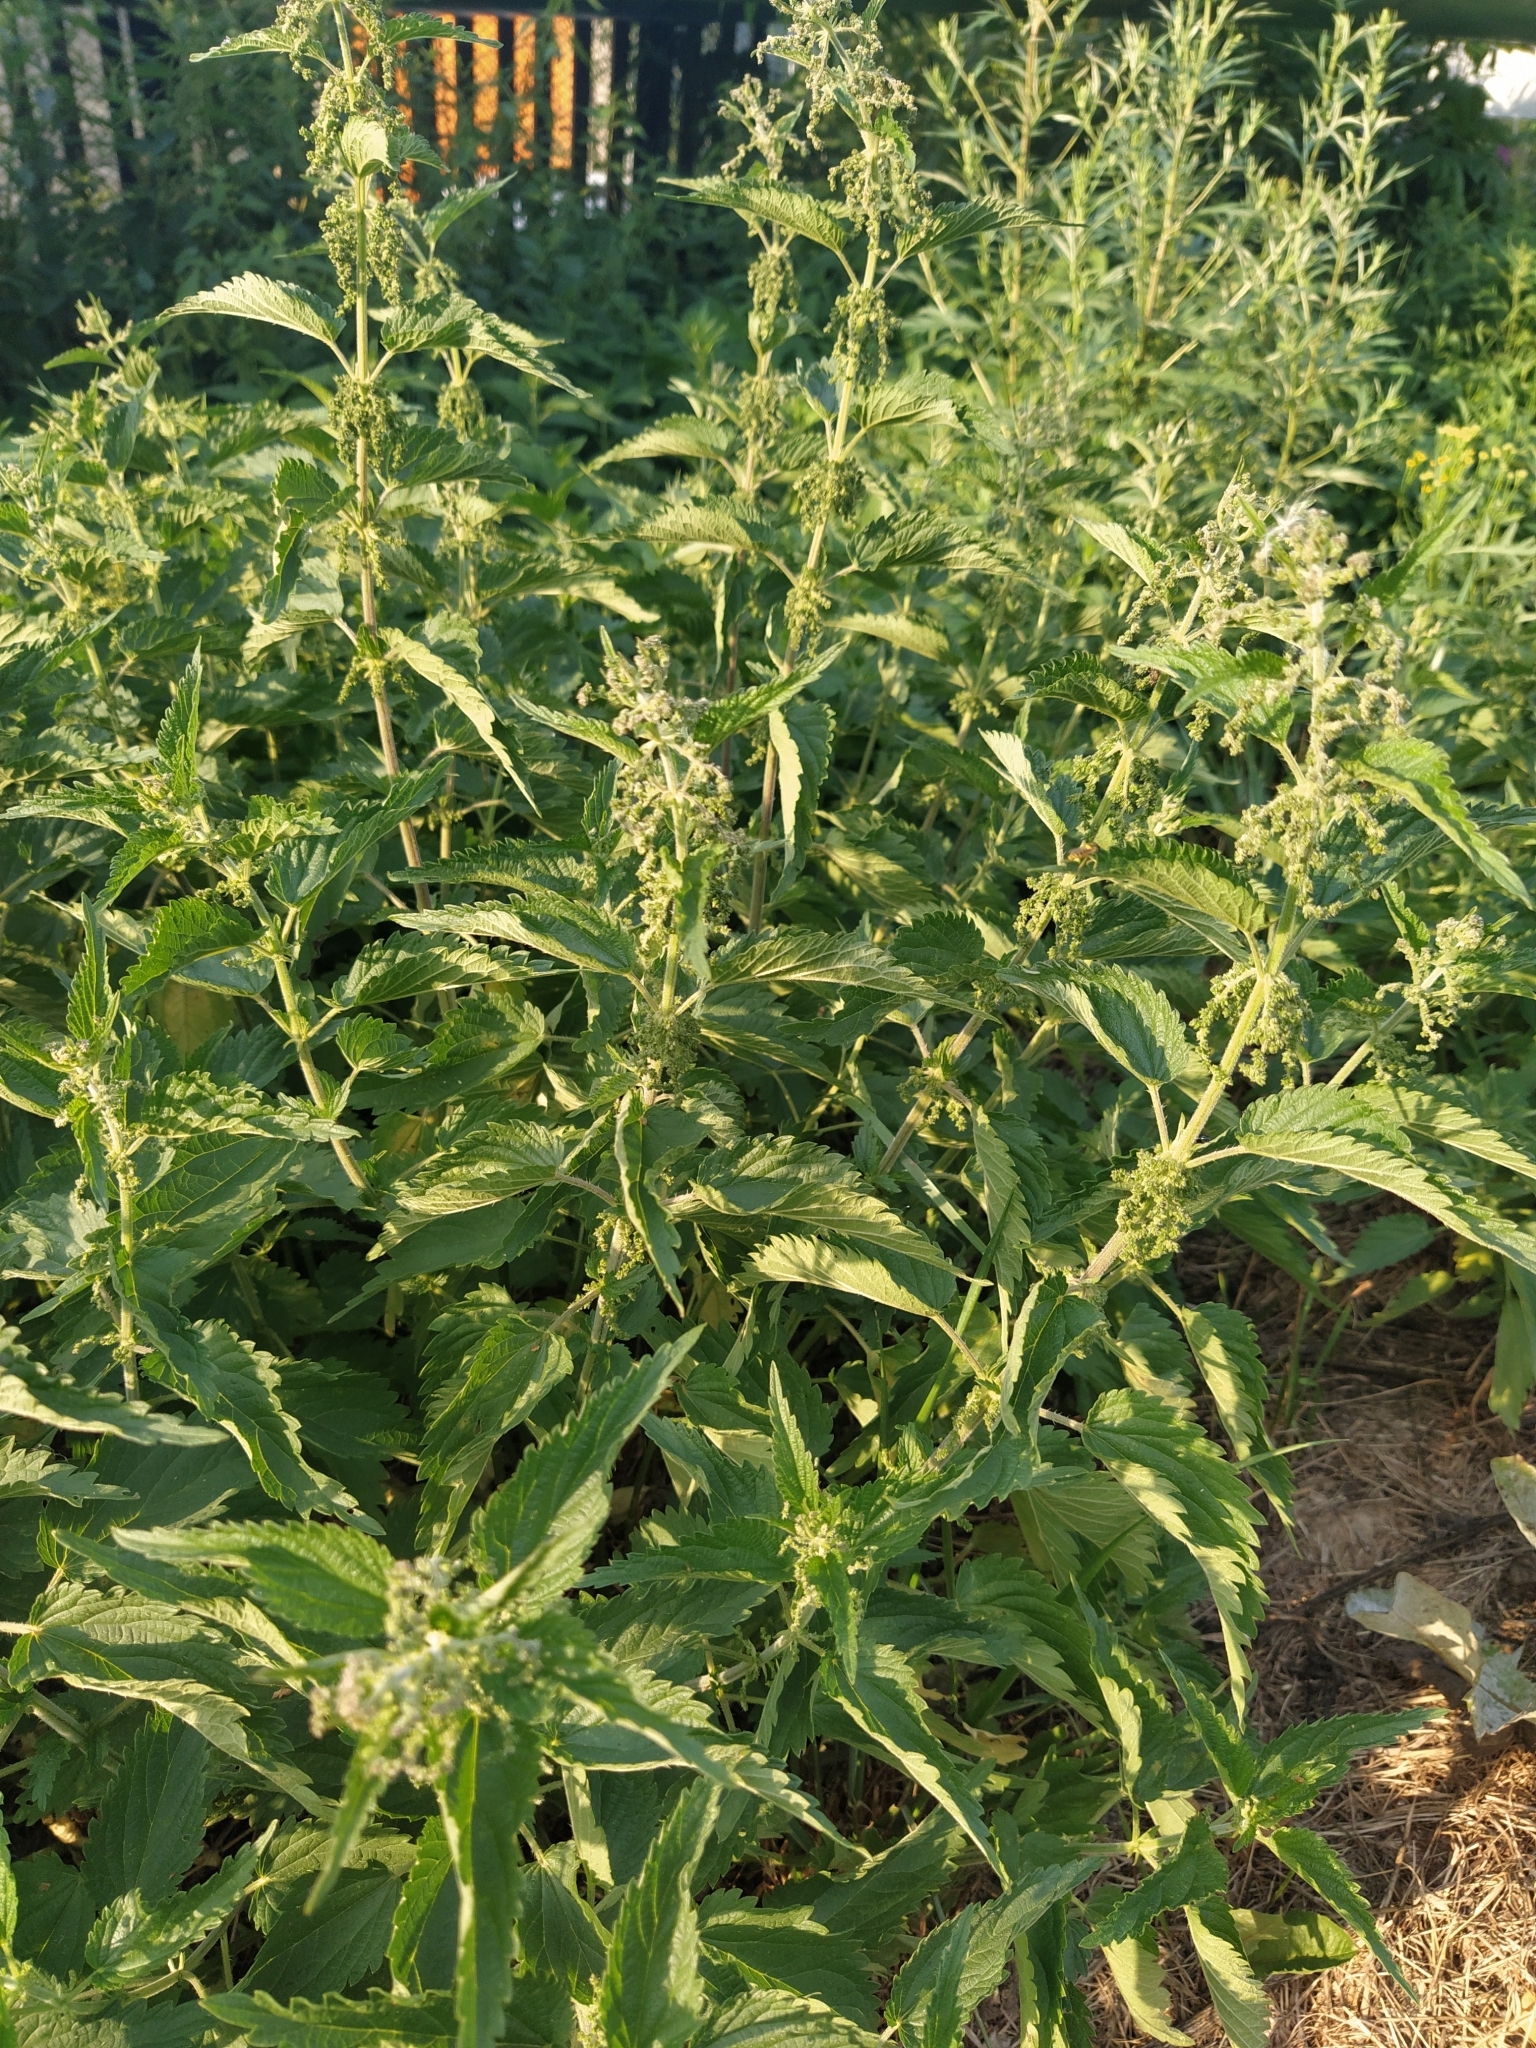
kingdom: Plantae
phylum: Tracheophyta
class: Magnoliopsida
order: Rosales
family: Urticaceae
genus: Urtica
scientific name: Urtica dioica
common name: Common nettle
